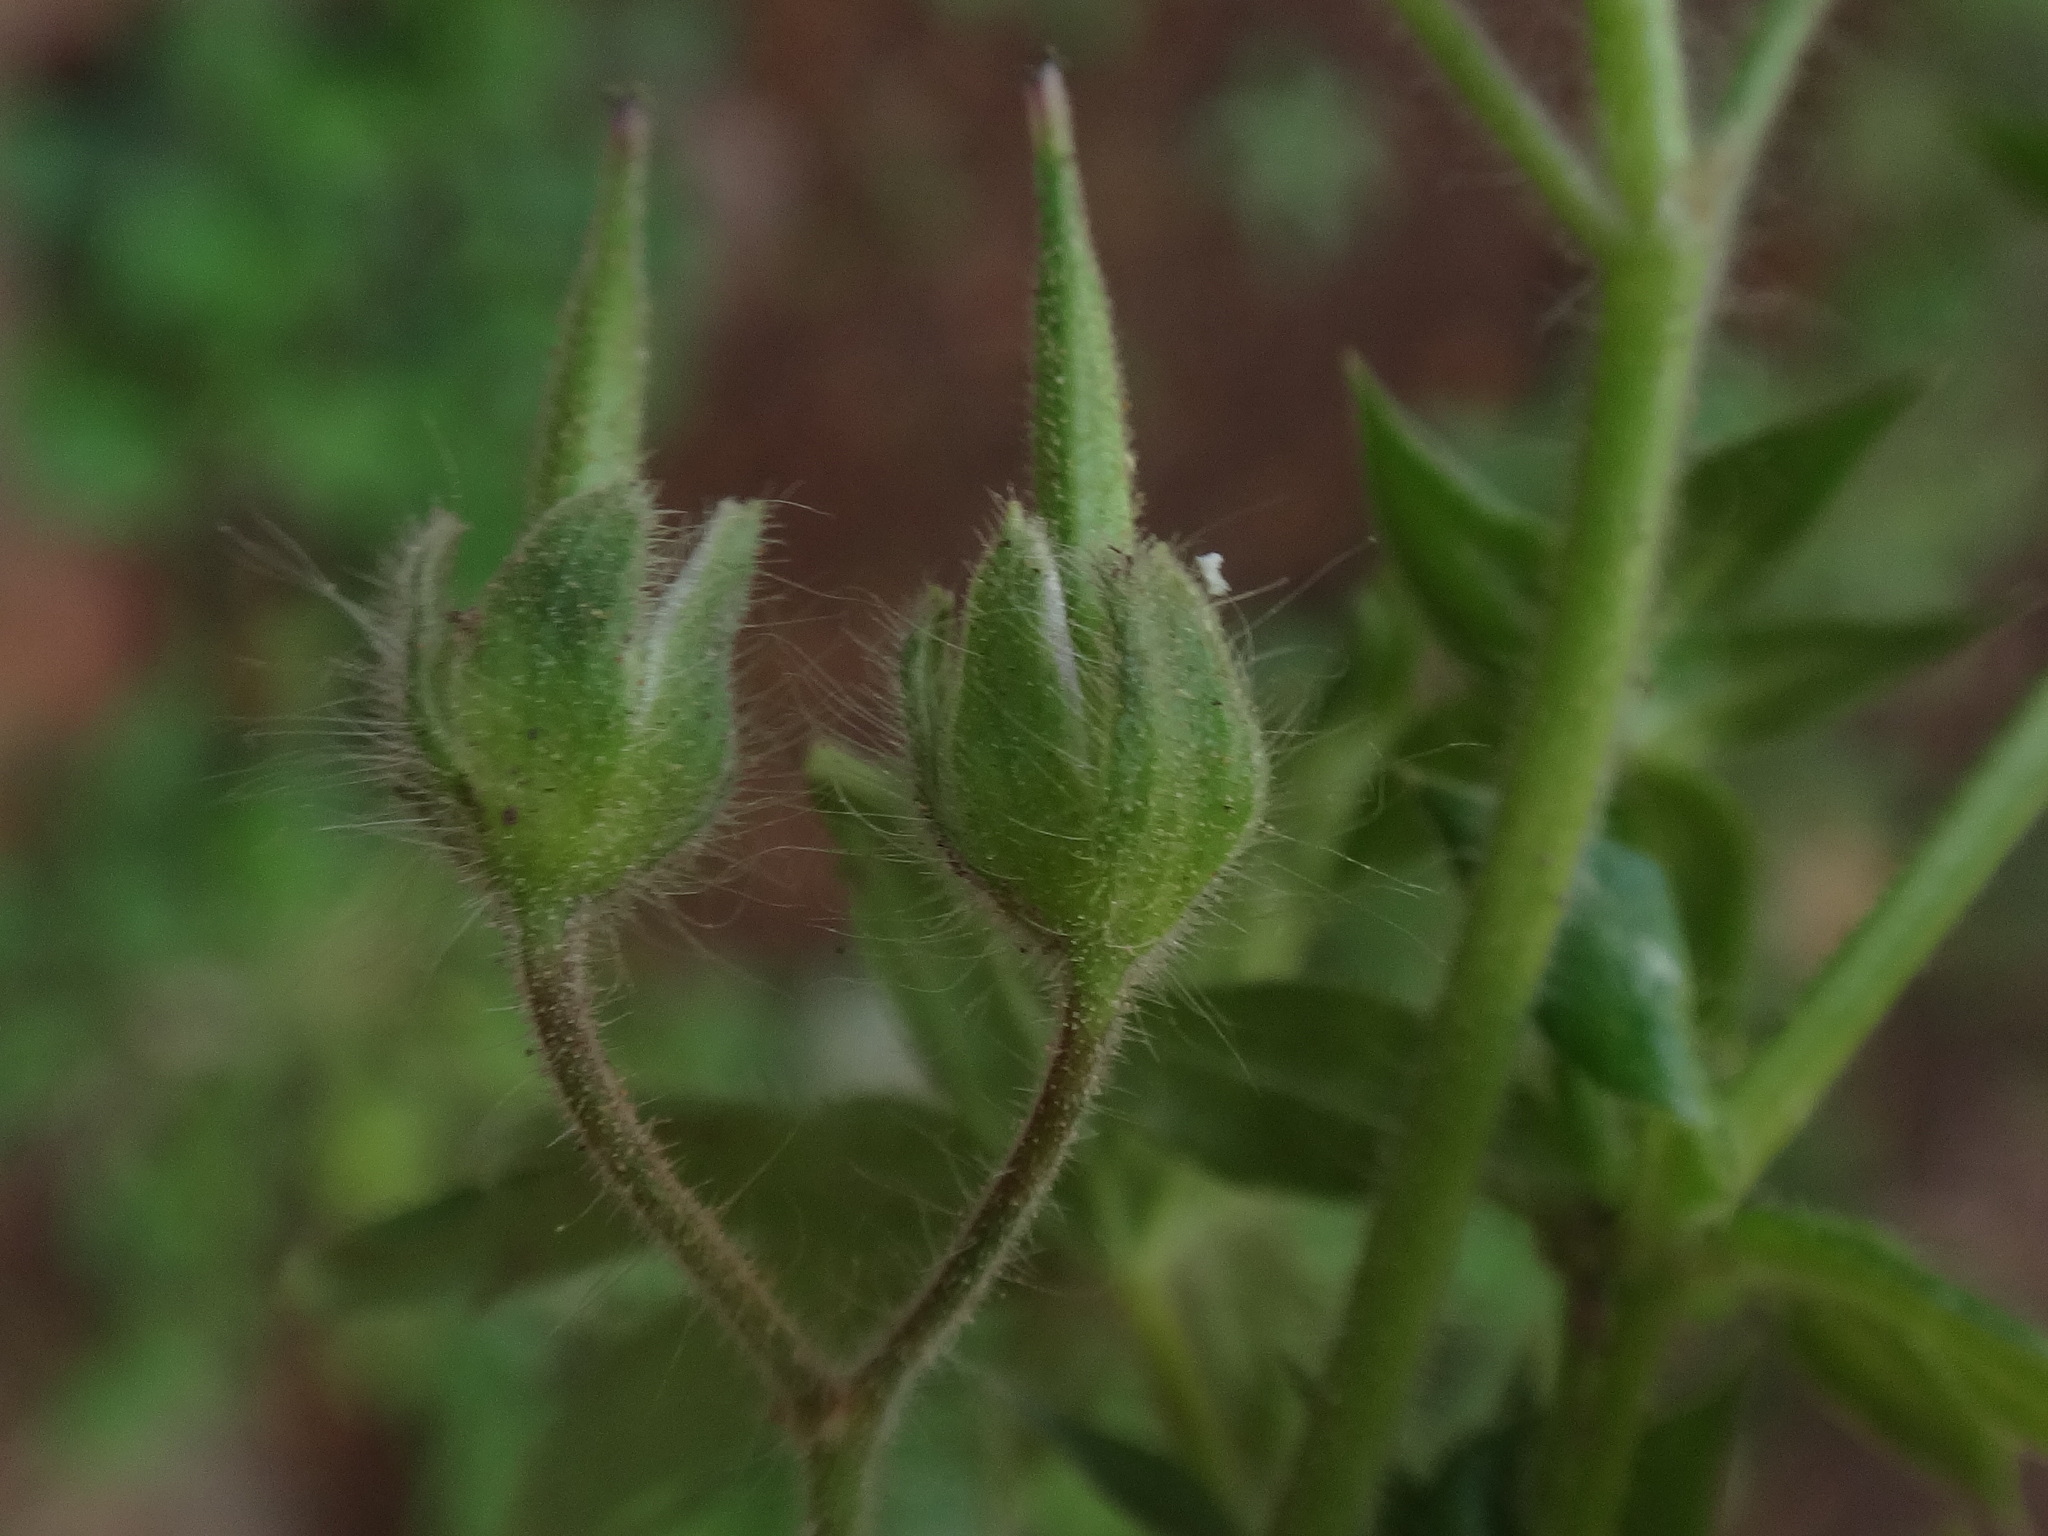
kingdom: Plantae
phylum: Tracheophyta
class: Magnoliopsida
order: Geraniales
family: Geraniaceae
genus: Geranium
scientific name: Geranium molle
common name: Dove's-foot crane's-bill
